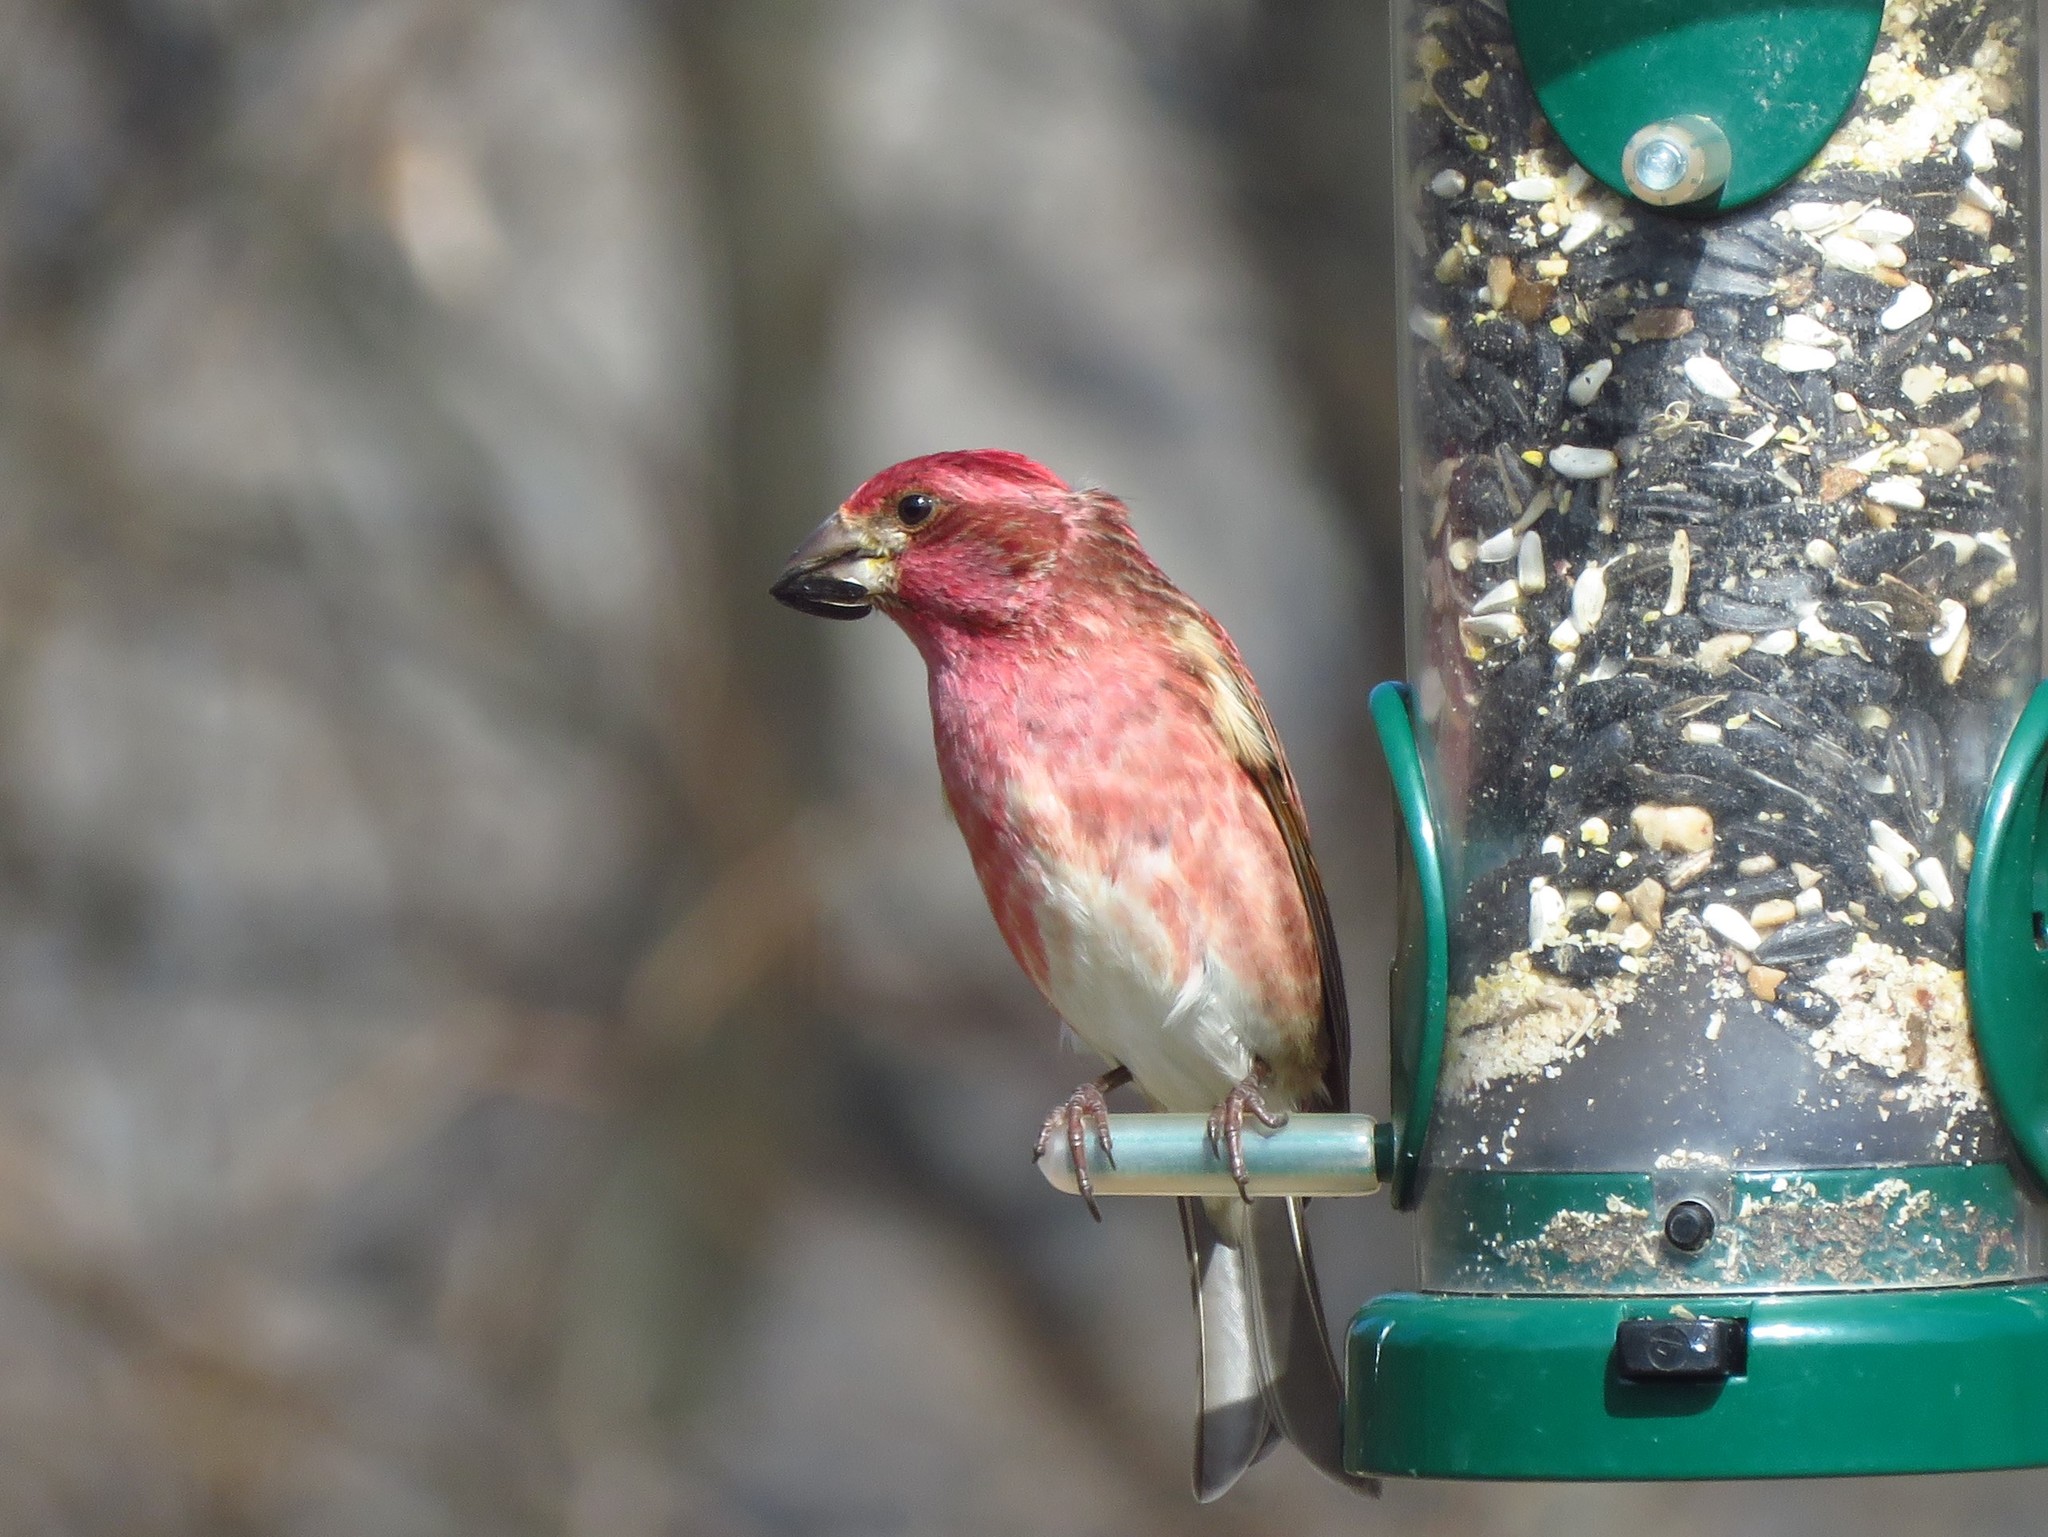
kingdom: Animalia
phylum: Chordata
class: Aves
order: Passeriformes
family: Fringillidae
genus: Haemorhous
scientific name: Haemorhous purpureus
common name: Purple finch
